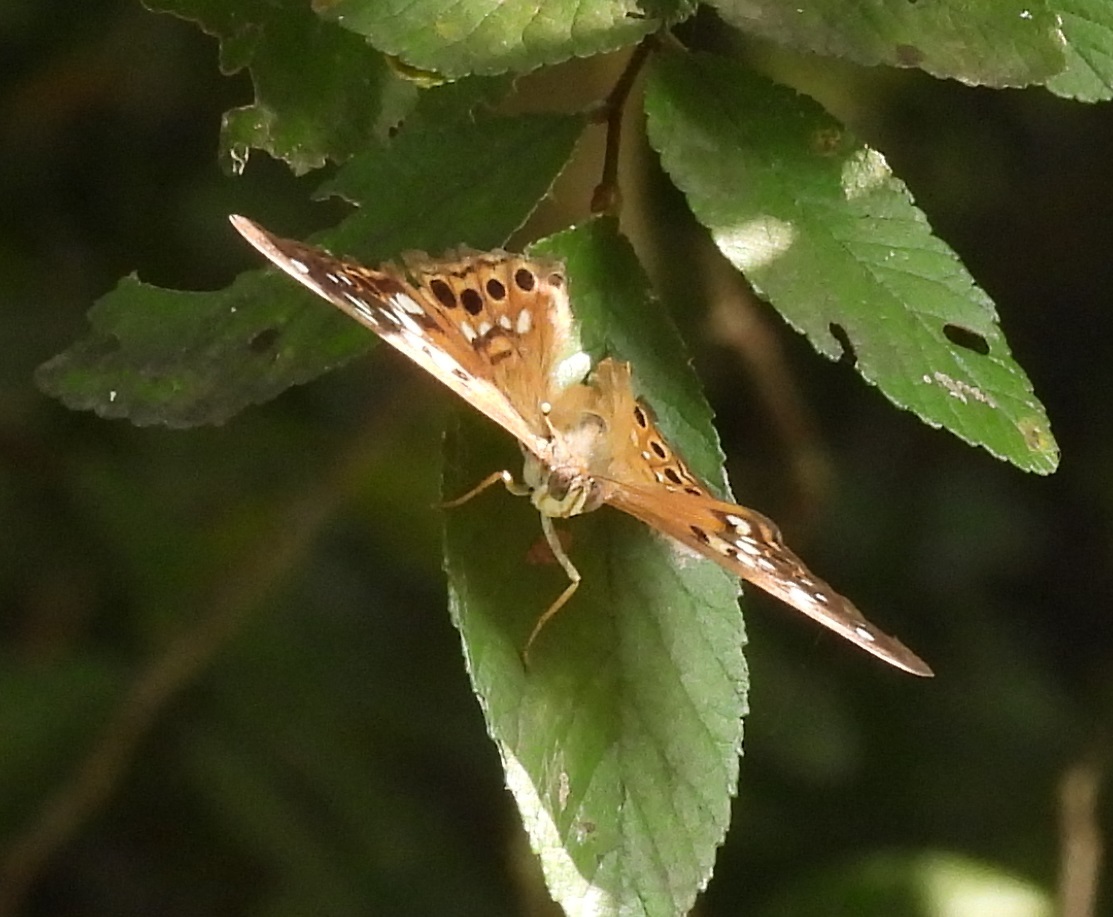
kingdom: Animalia
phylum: Arthropoda
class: Insecta
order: Lepidoptera
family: Nymphalidae
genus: Asterocampa
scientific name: Asterocampa celtis
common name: Hackberry emperor
